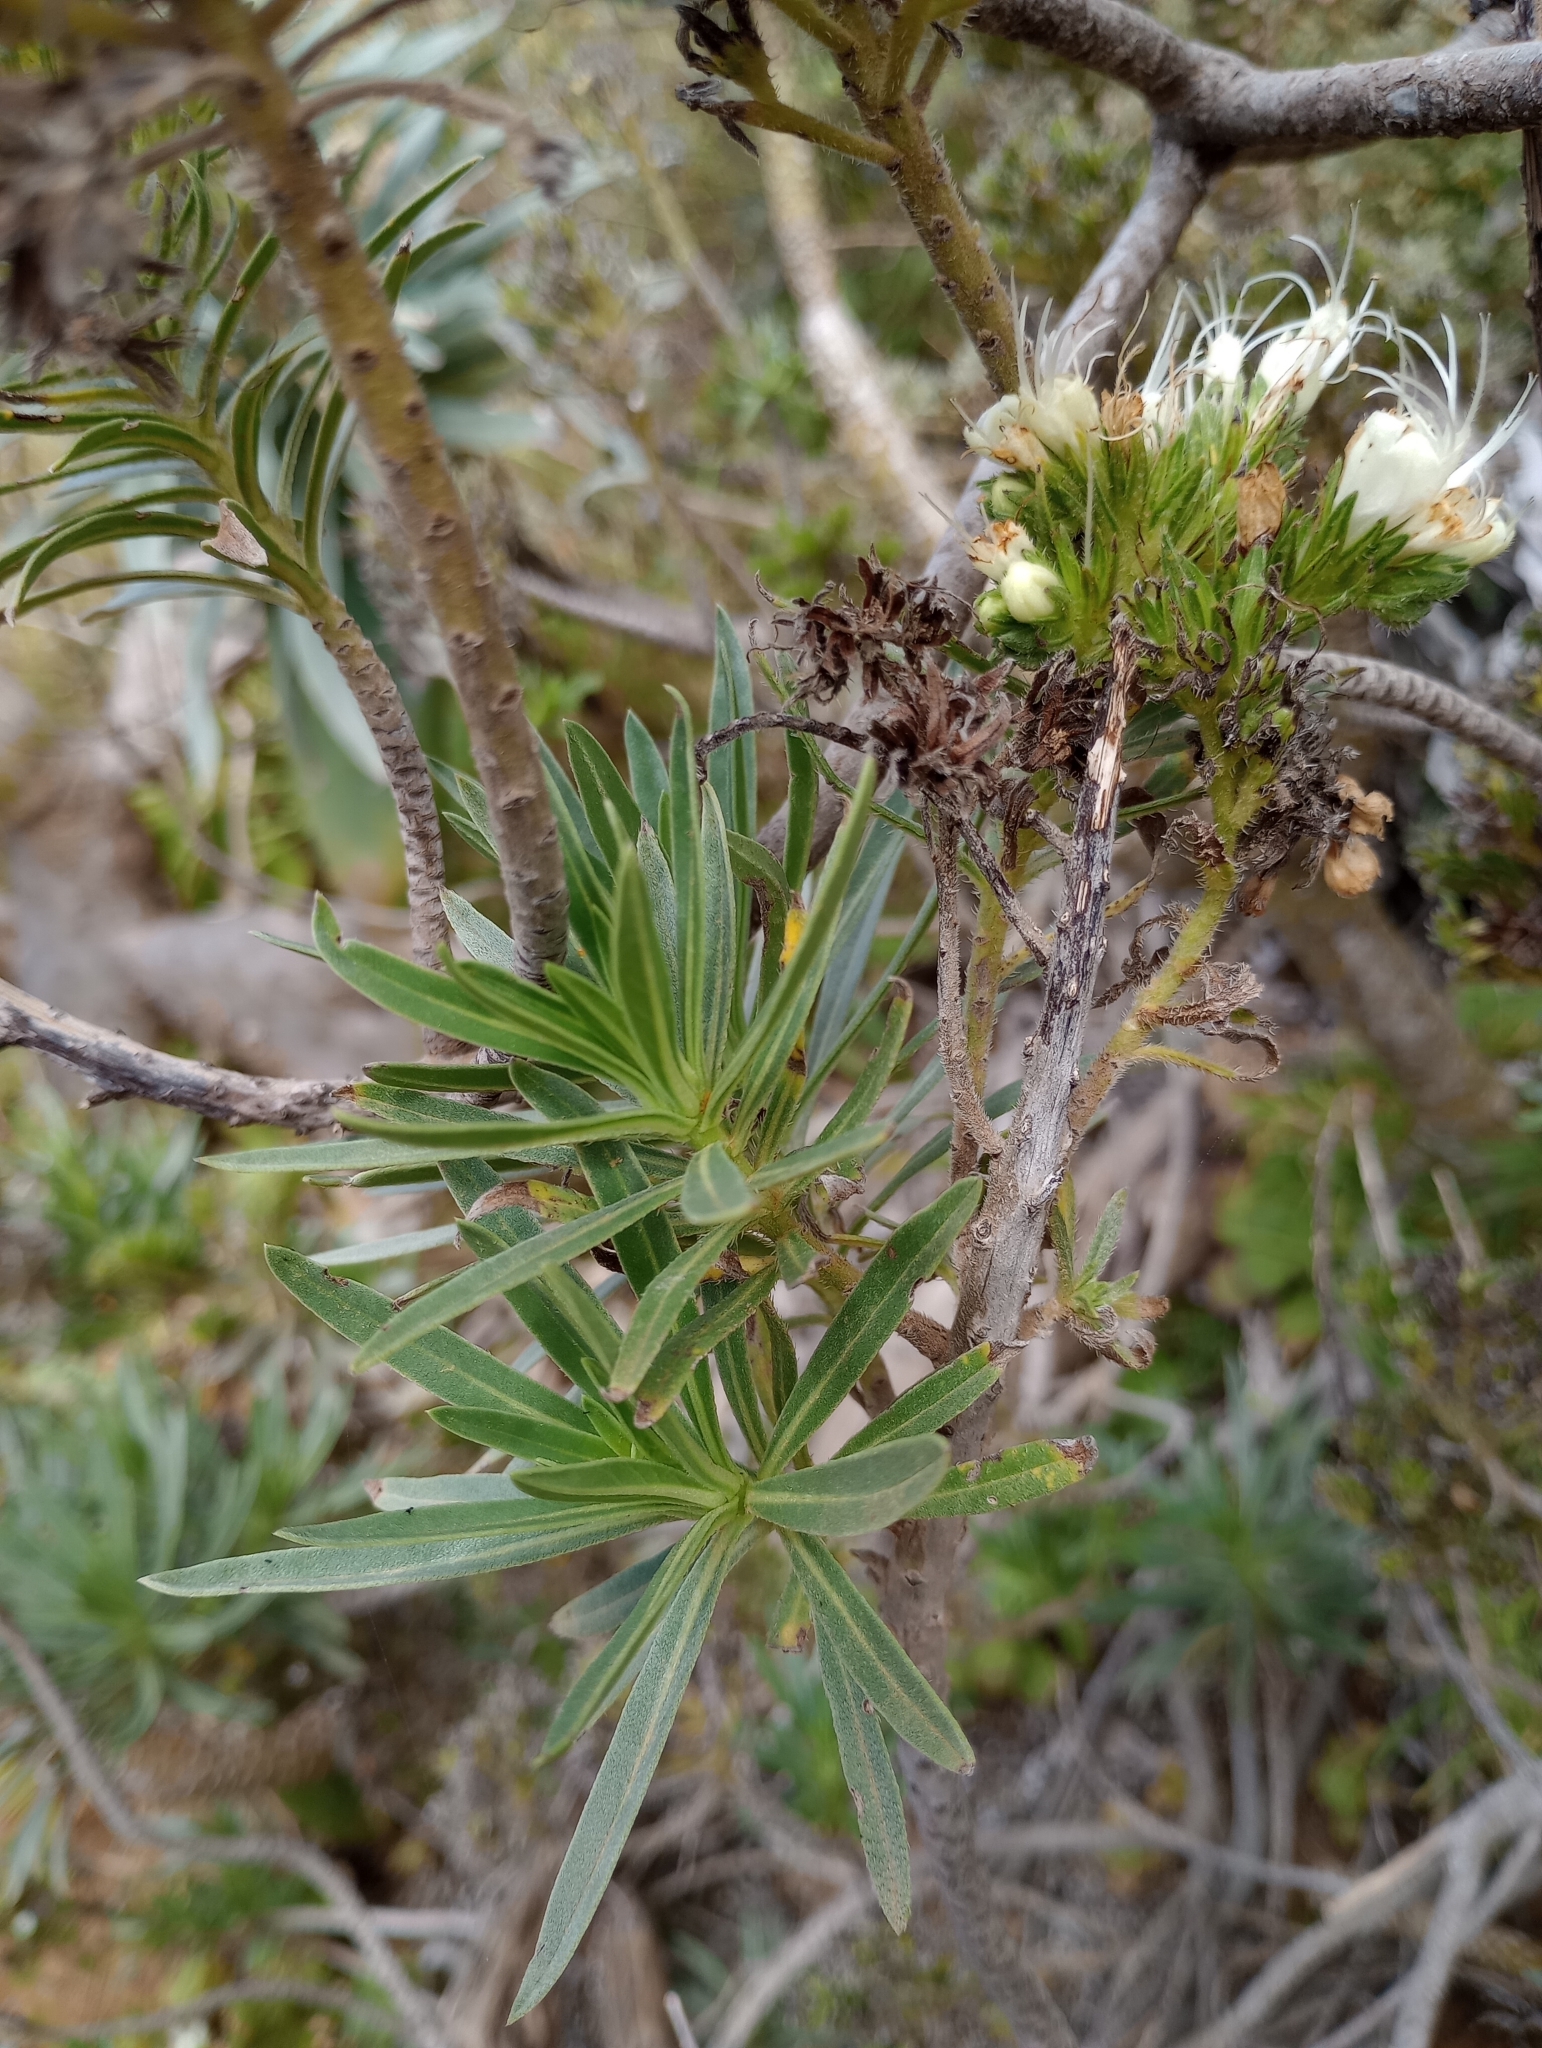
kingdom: Plantae
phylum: Tracheophyta
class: Magnoliopsida
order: Boraginales
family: Boraginaceae
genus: Echium
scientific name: Echium leucophaeum
